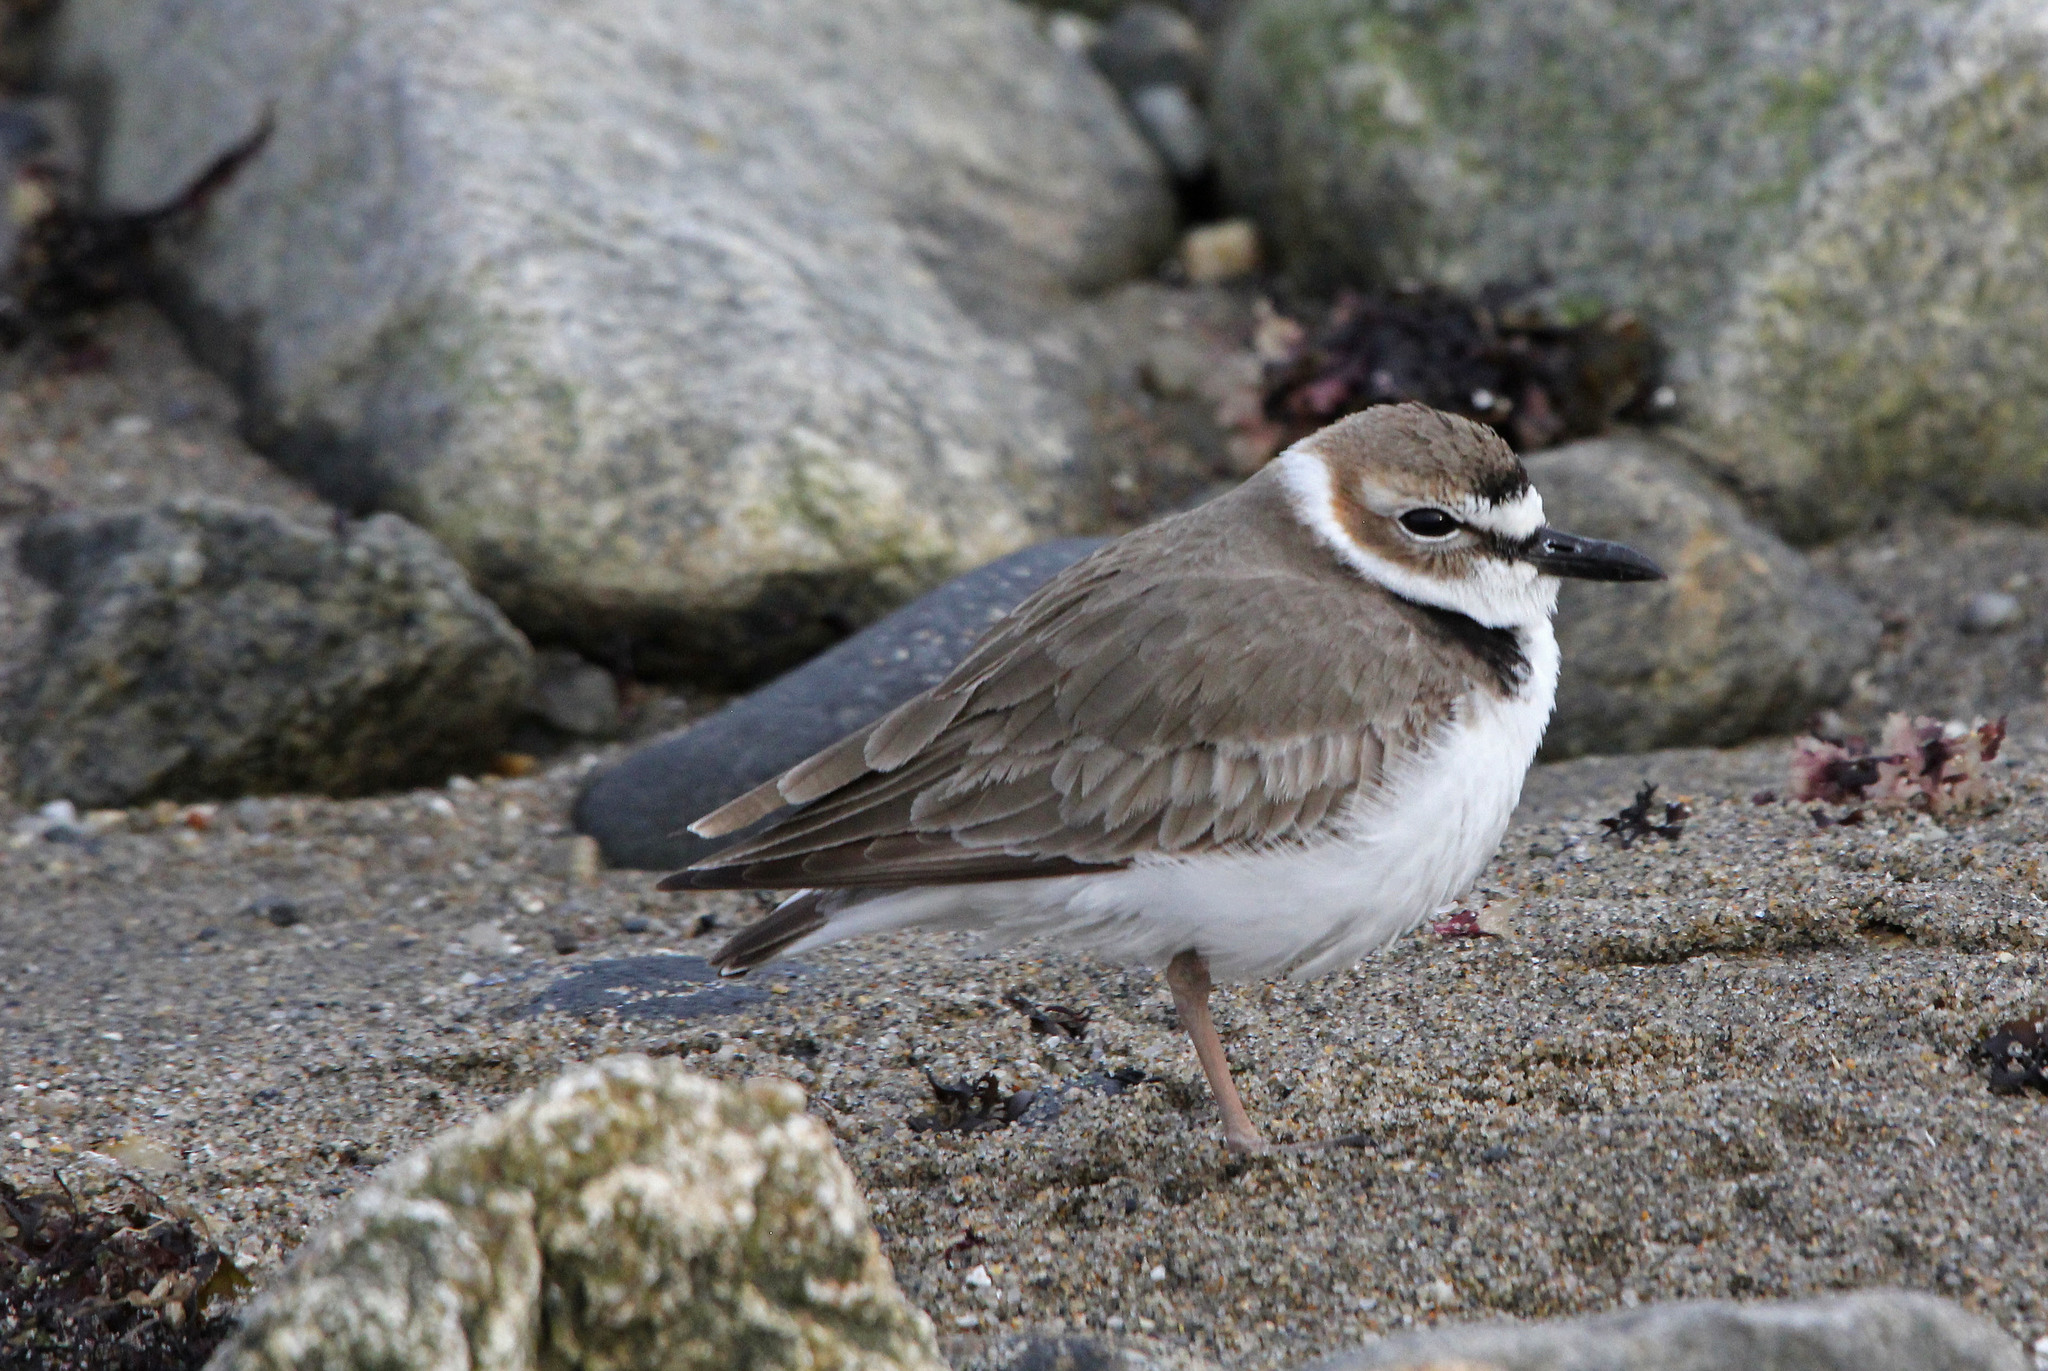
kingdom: Animalia
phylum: Chordata
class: Aves
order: Charadriiformes
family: Charadriidae
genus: Anarhynchus
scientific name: Anarhynchus
